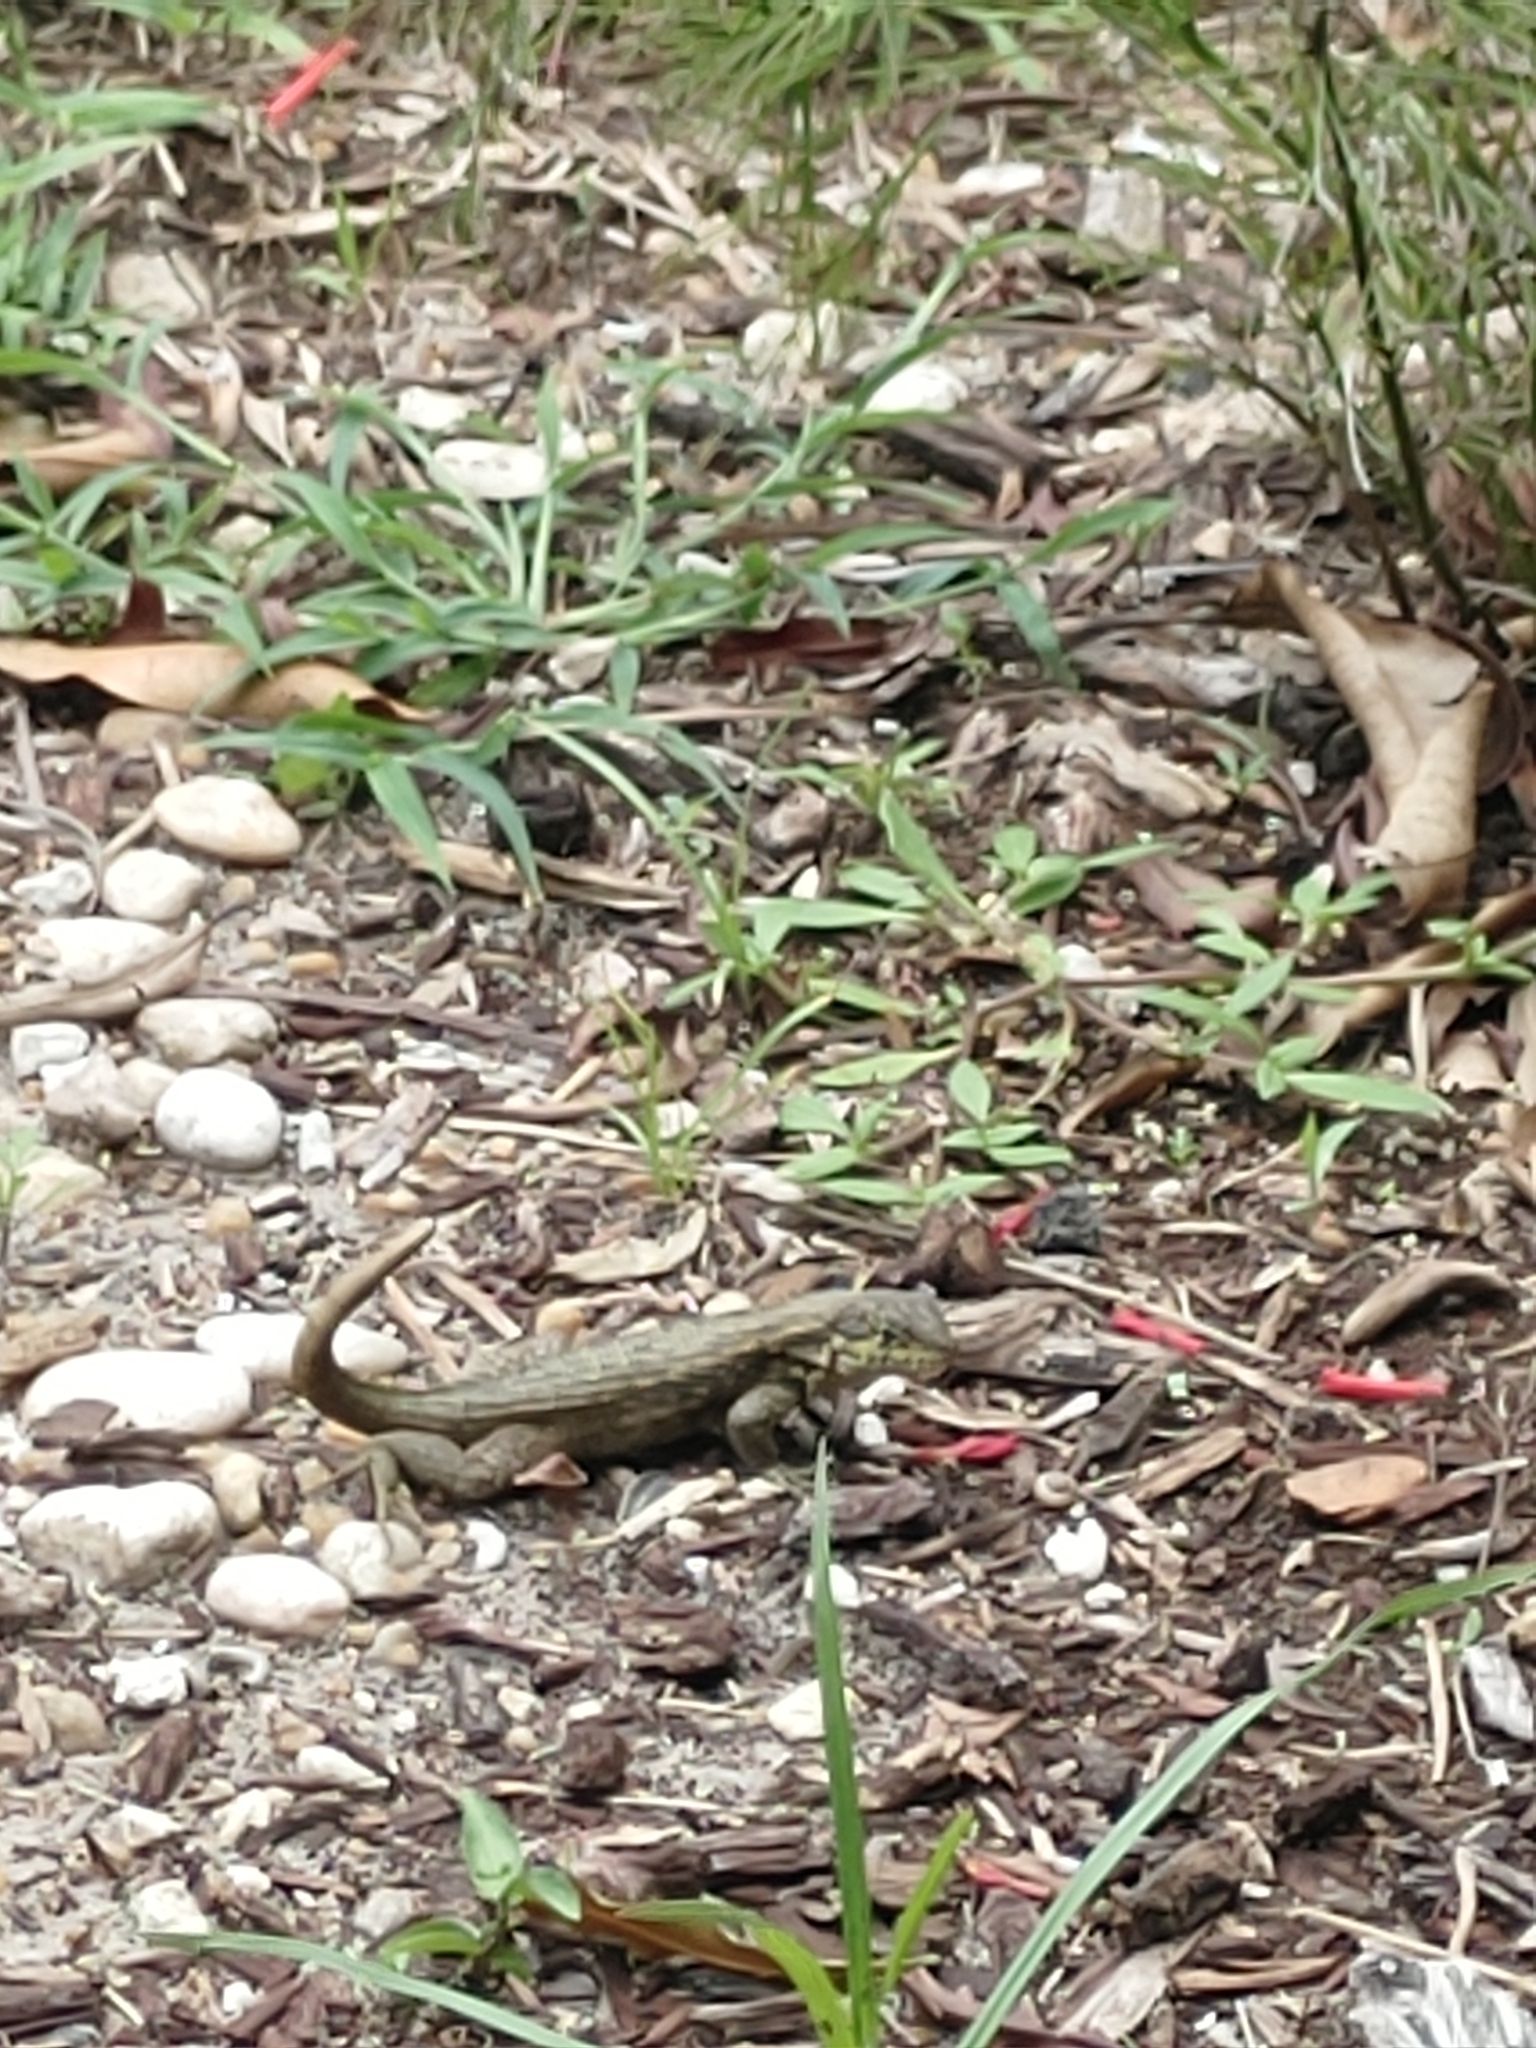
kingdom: Animalia
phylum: Chordata
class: Squamata
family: Leiocephalidae
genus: Leiocephalus
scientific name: Leiocephalus carinatus
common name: Northern curly-tailed lizard
